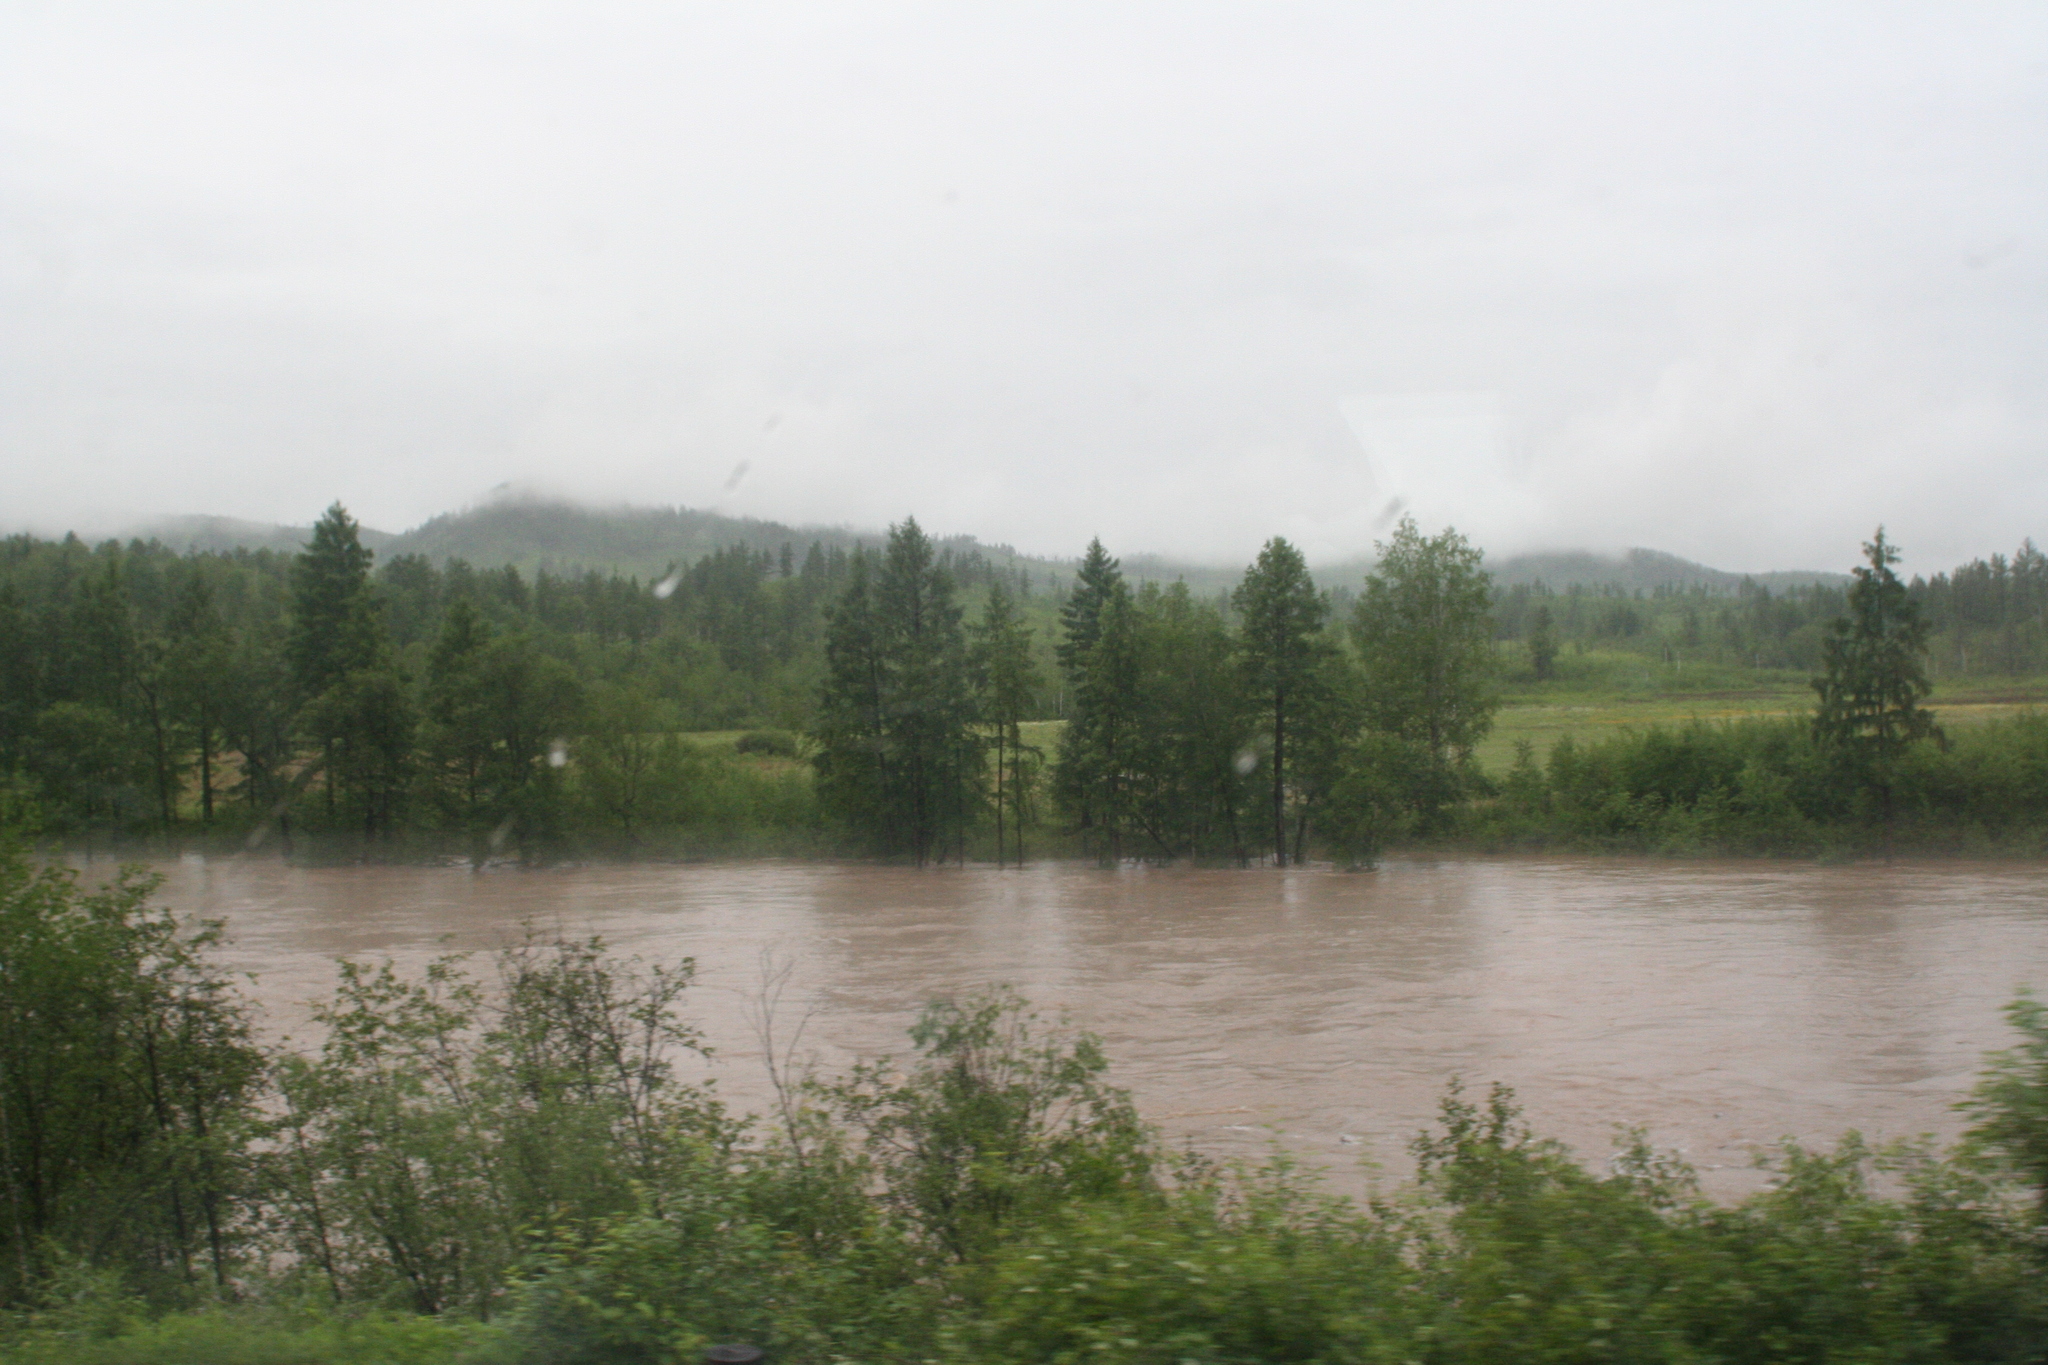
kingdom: Plantae
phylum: Tracheophyta
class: Pinopsida
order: Pinales
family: Pinaceae
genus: Larix
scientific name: Larix gmelinii
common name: Dahurian larch
